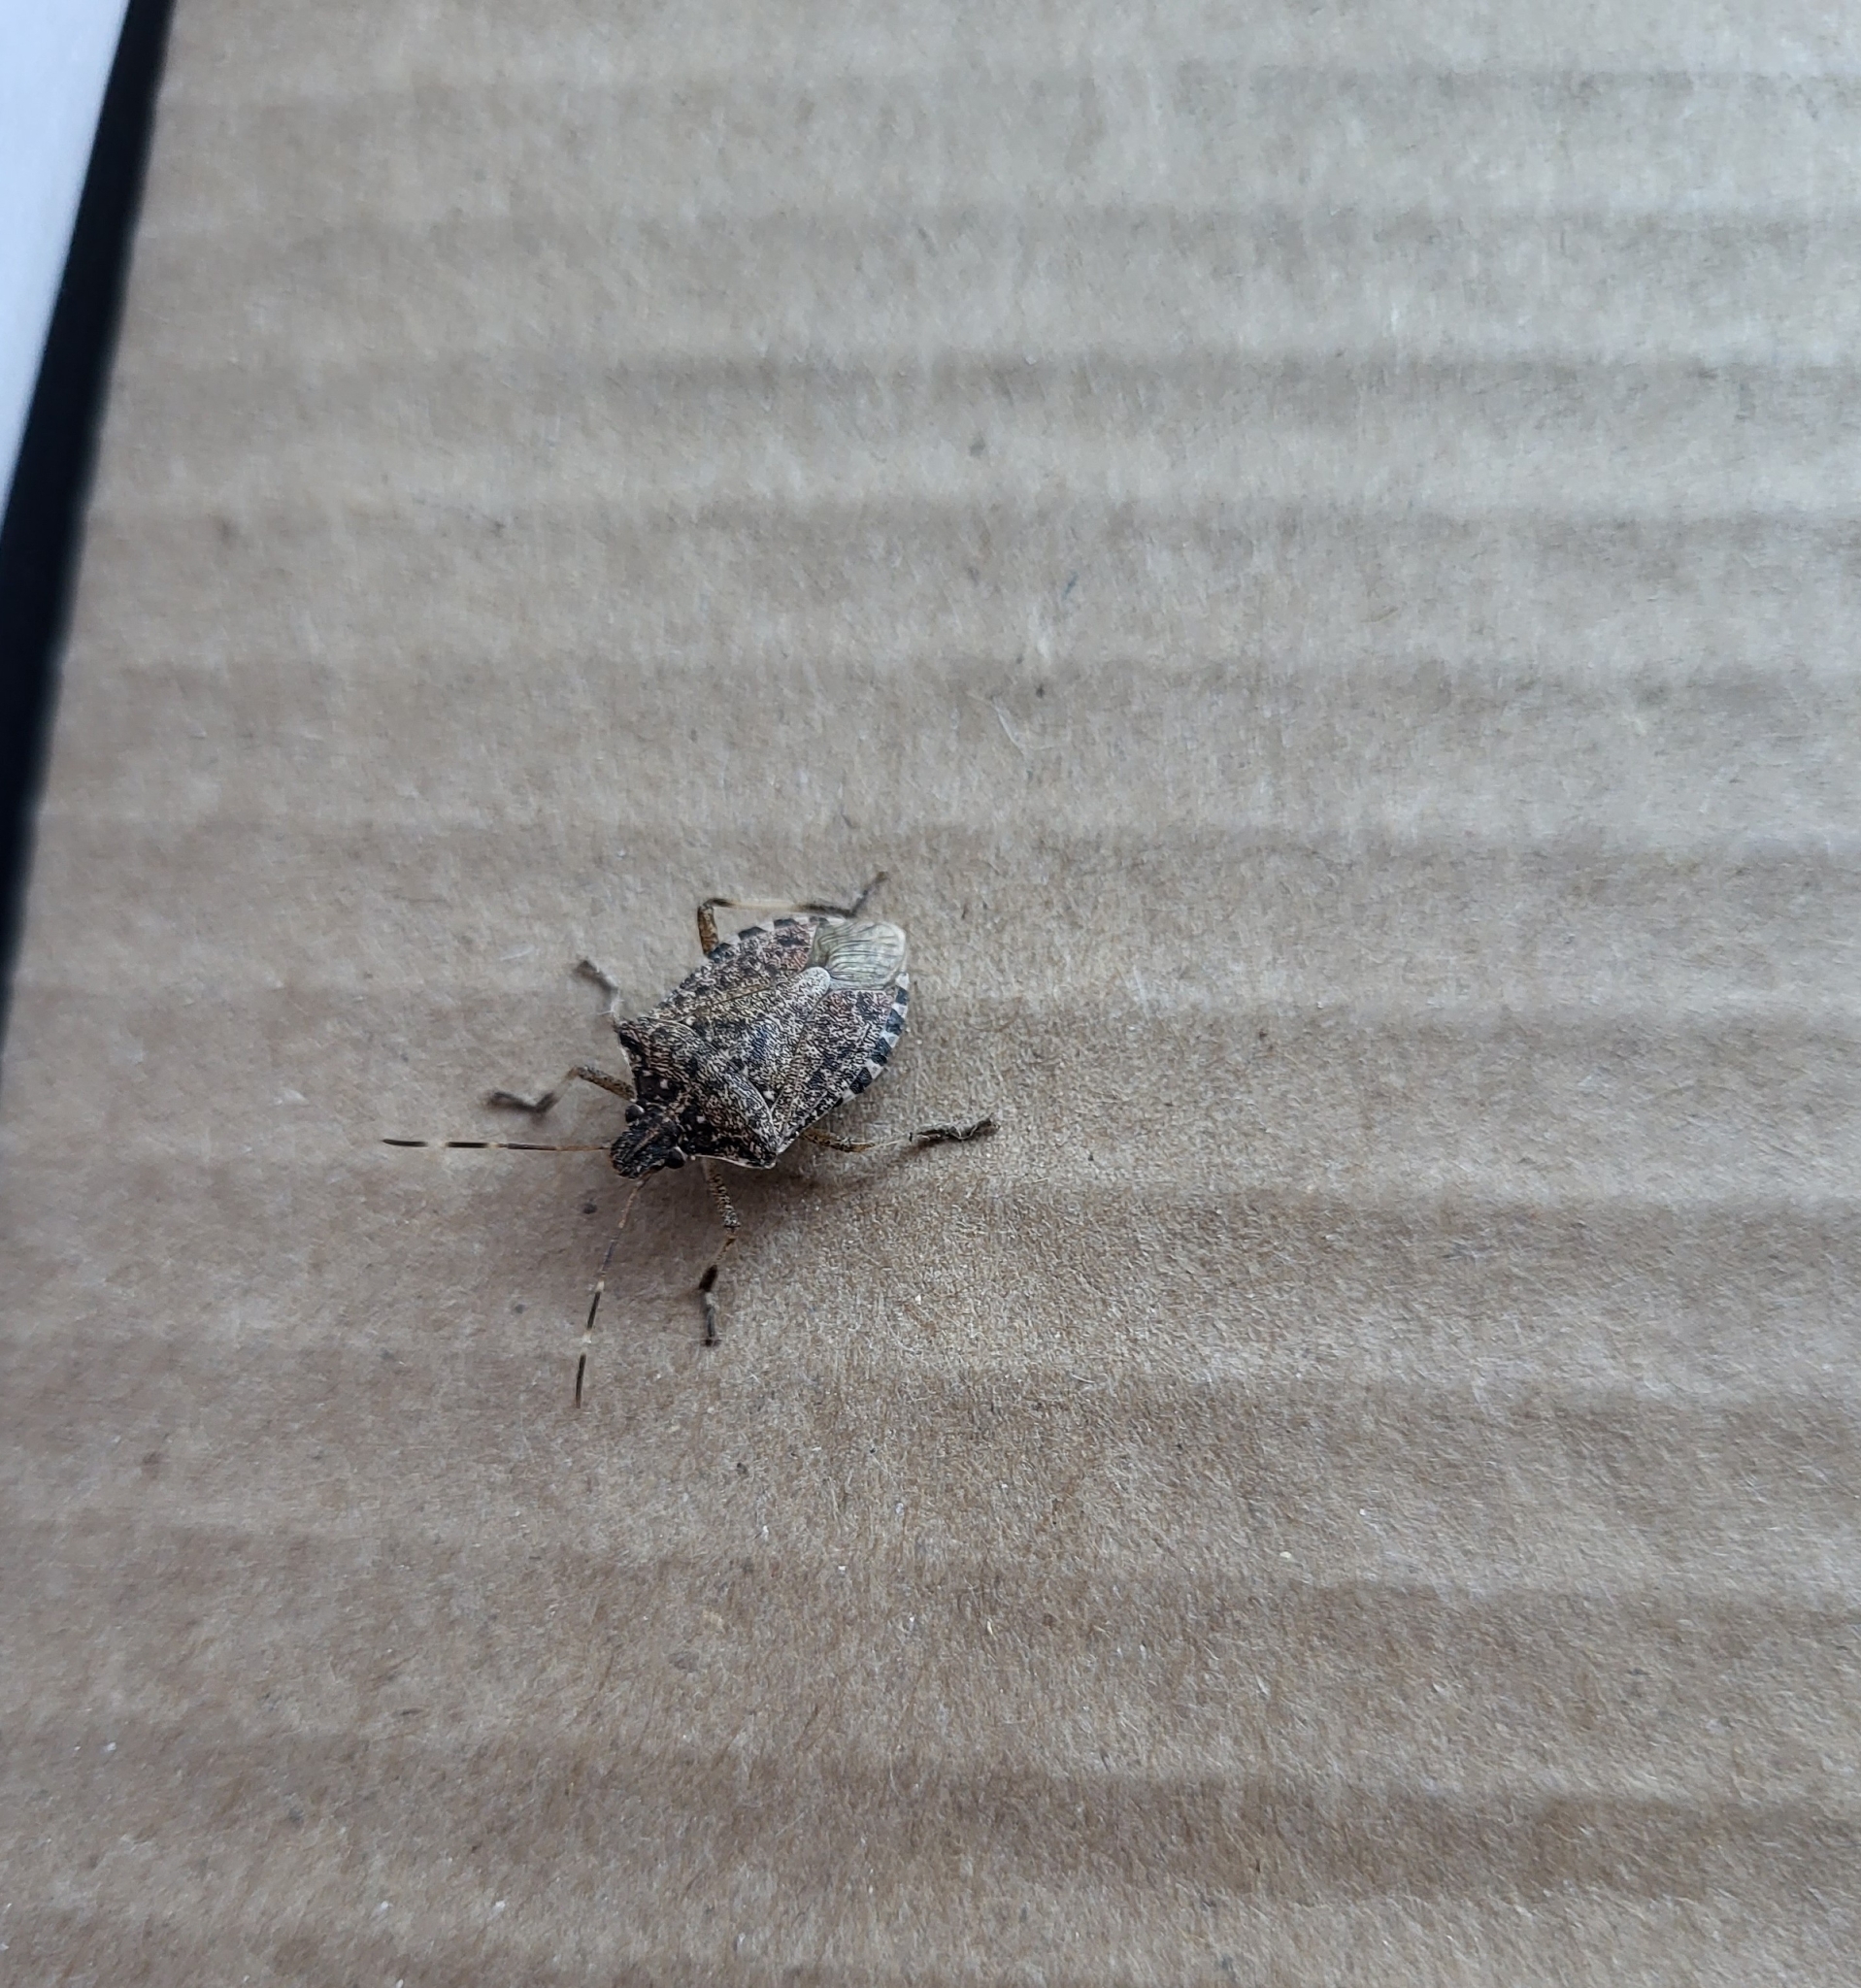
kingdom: Animalia
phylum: Arthropoda
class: Insecta
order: Hemiptera
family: Pentatomidae
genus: Halyomorpha
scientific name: Halyomorpha halys
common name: Brown marmorated stink bug
